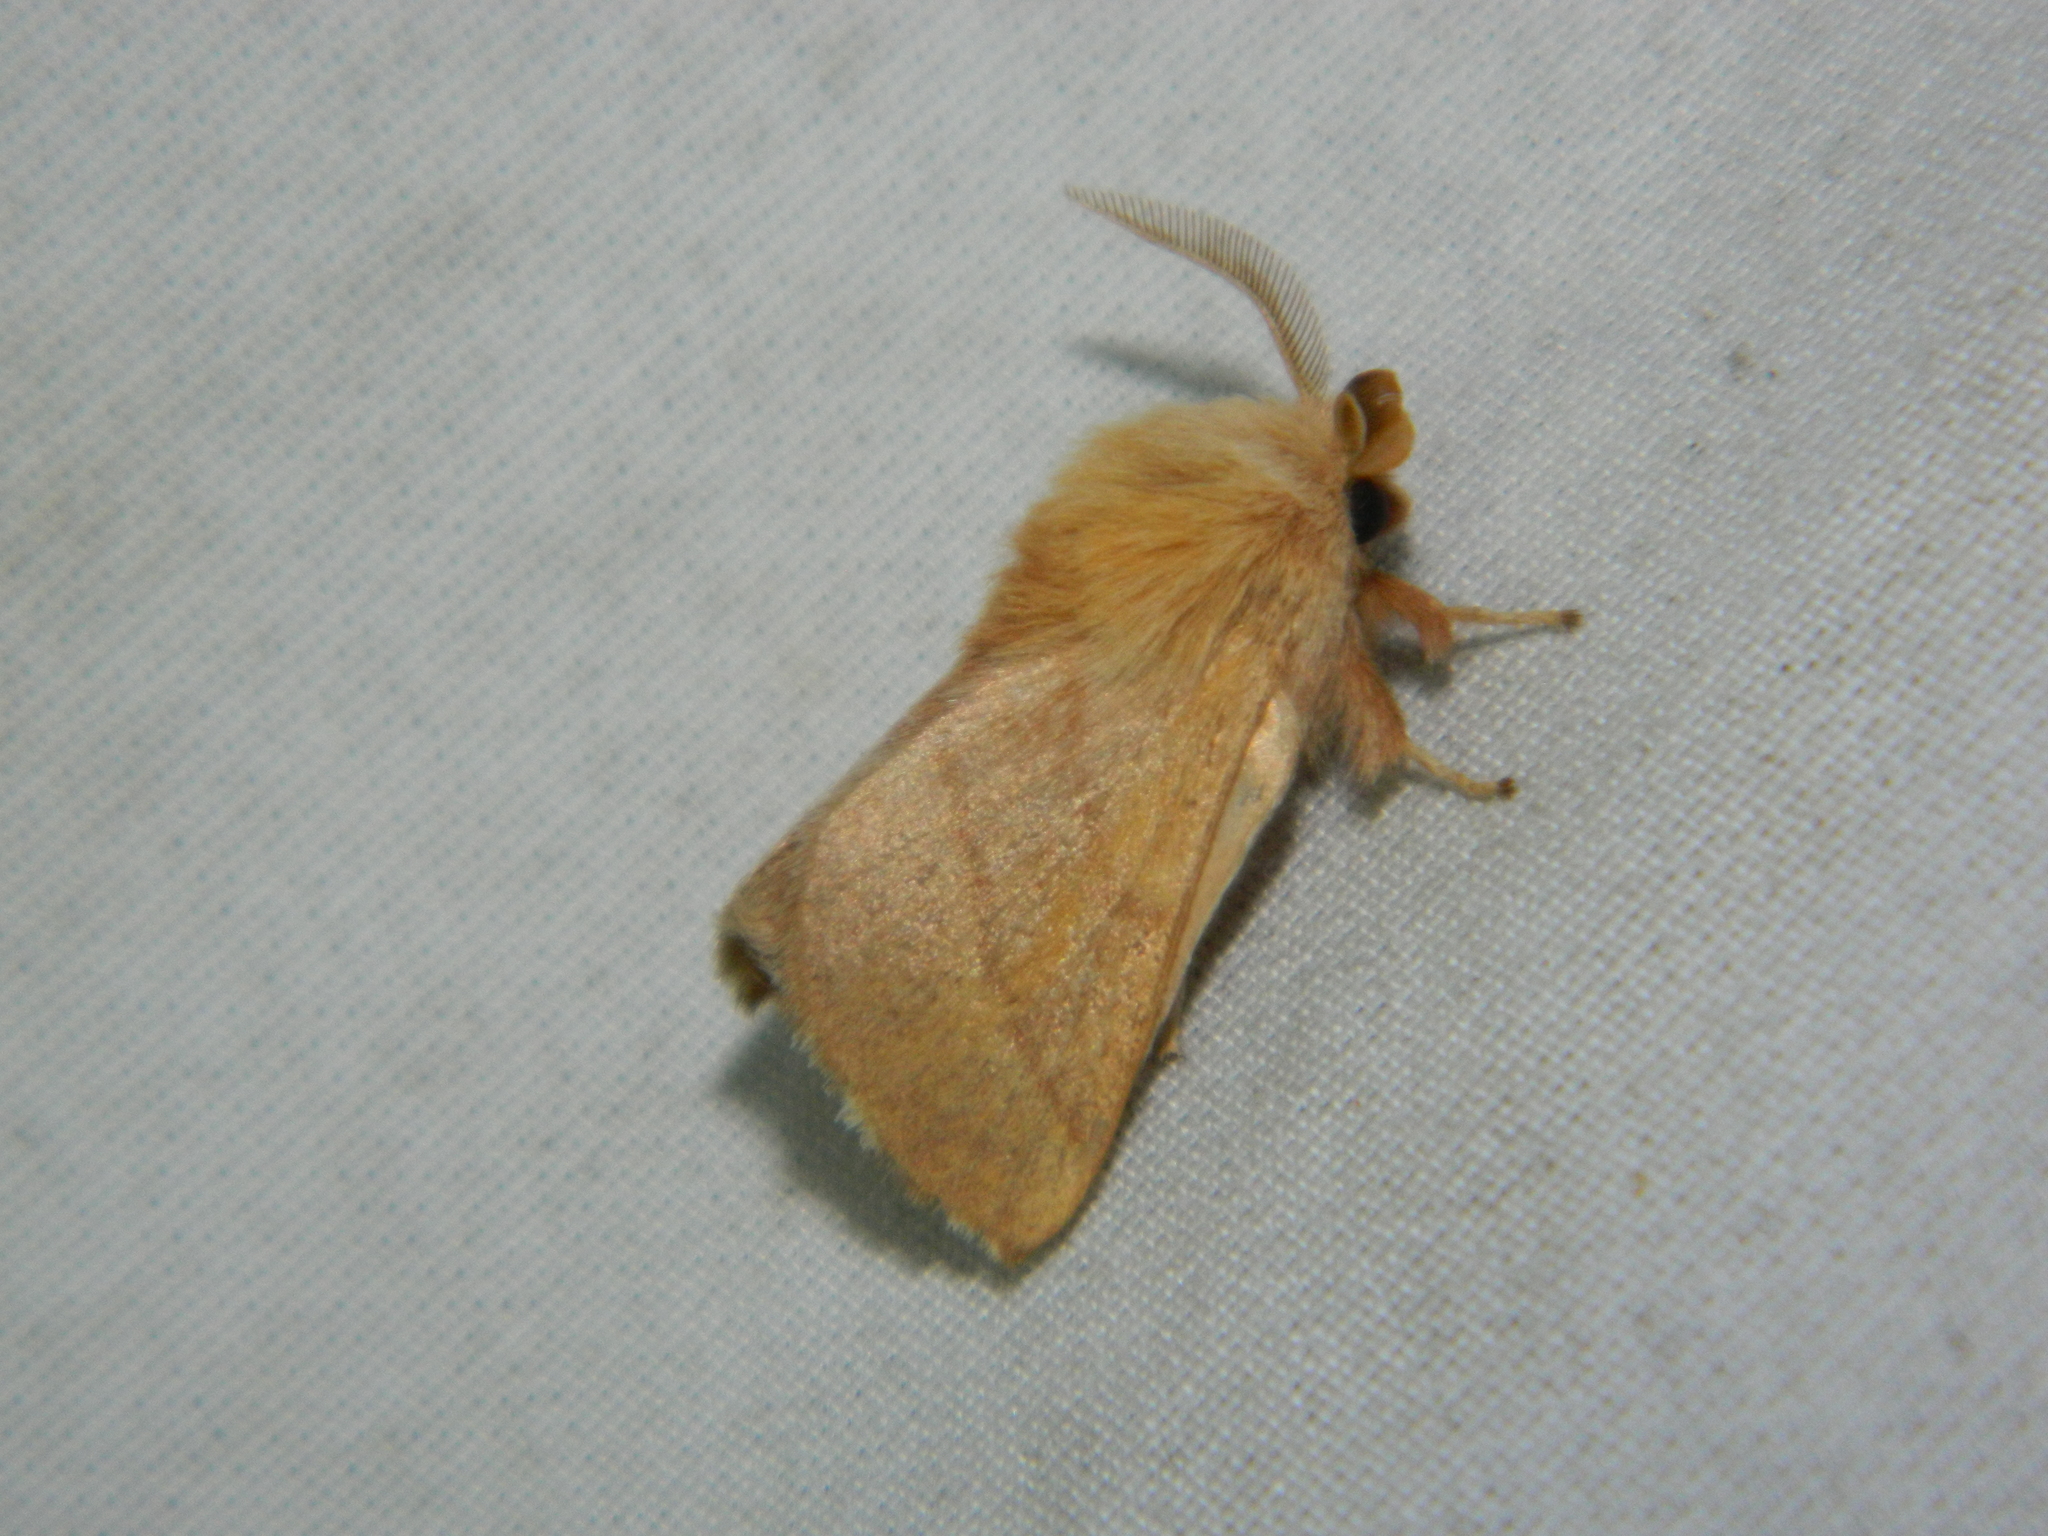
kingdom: Animalia
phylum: Arthropoda
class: Insecta
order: Lepidoptera
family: Lasiocampidae
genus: Malacosoma
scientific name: Malacosoma disstria
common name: Forest tent caterpillar
